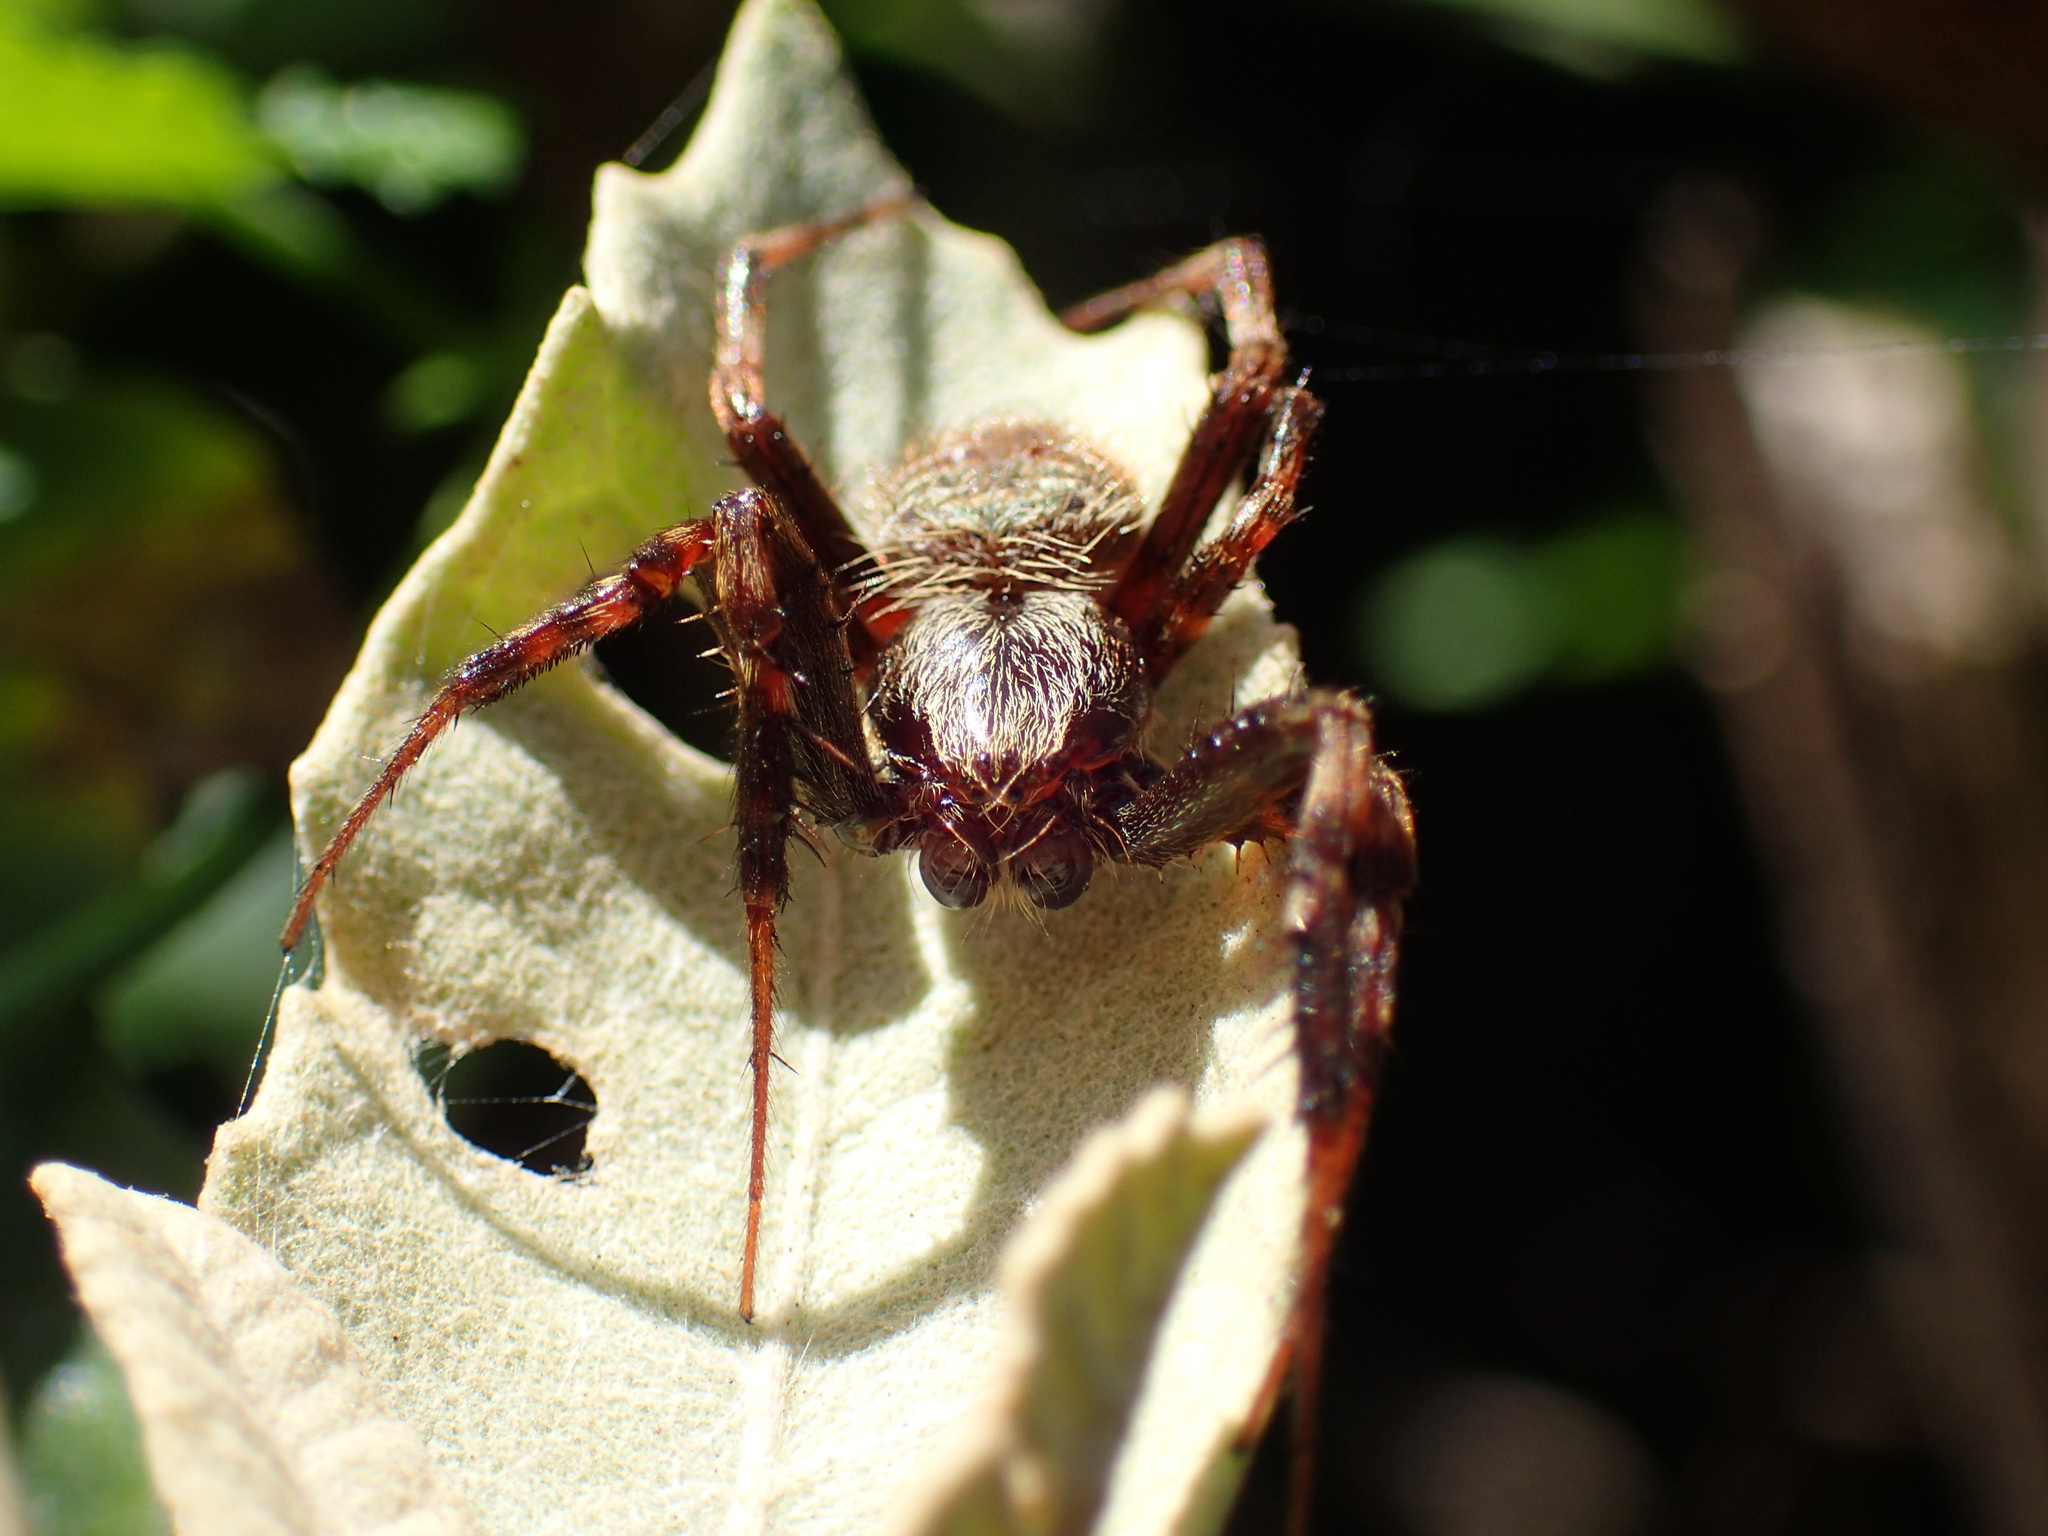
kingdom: Animalia
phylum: Arthropoda
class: Arachnida
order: Araneae
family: Araneidae
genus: Pararaneus
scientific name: Pararaneus perforatus
